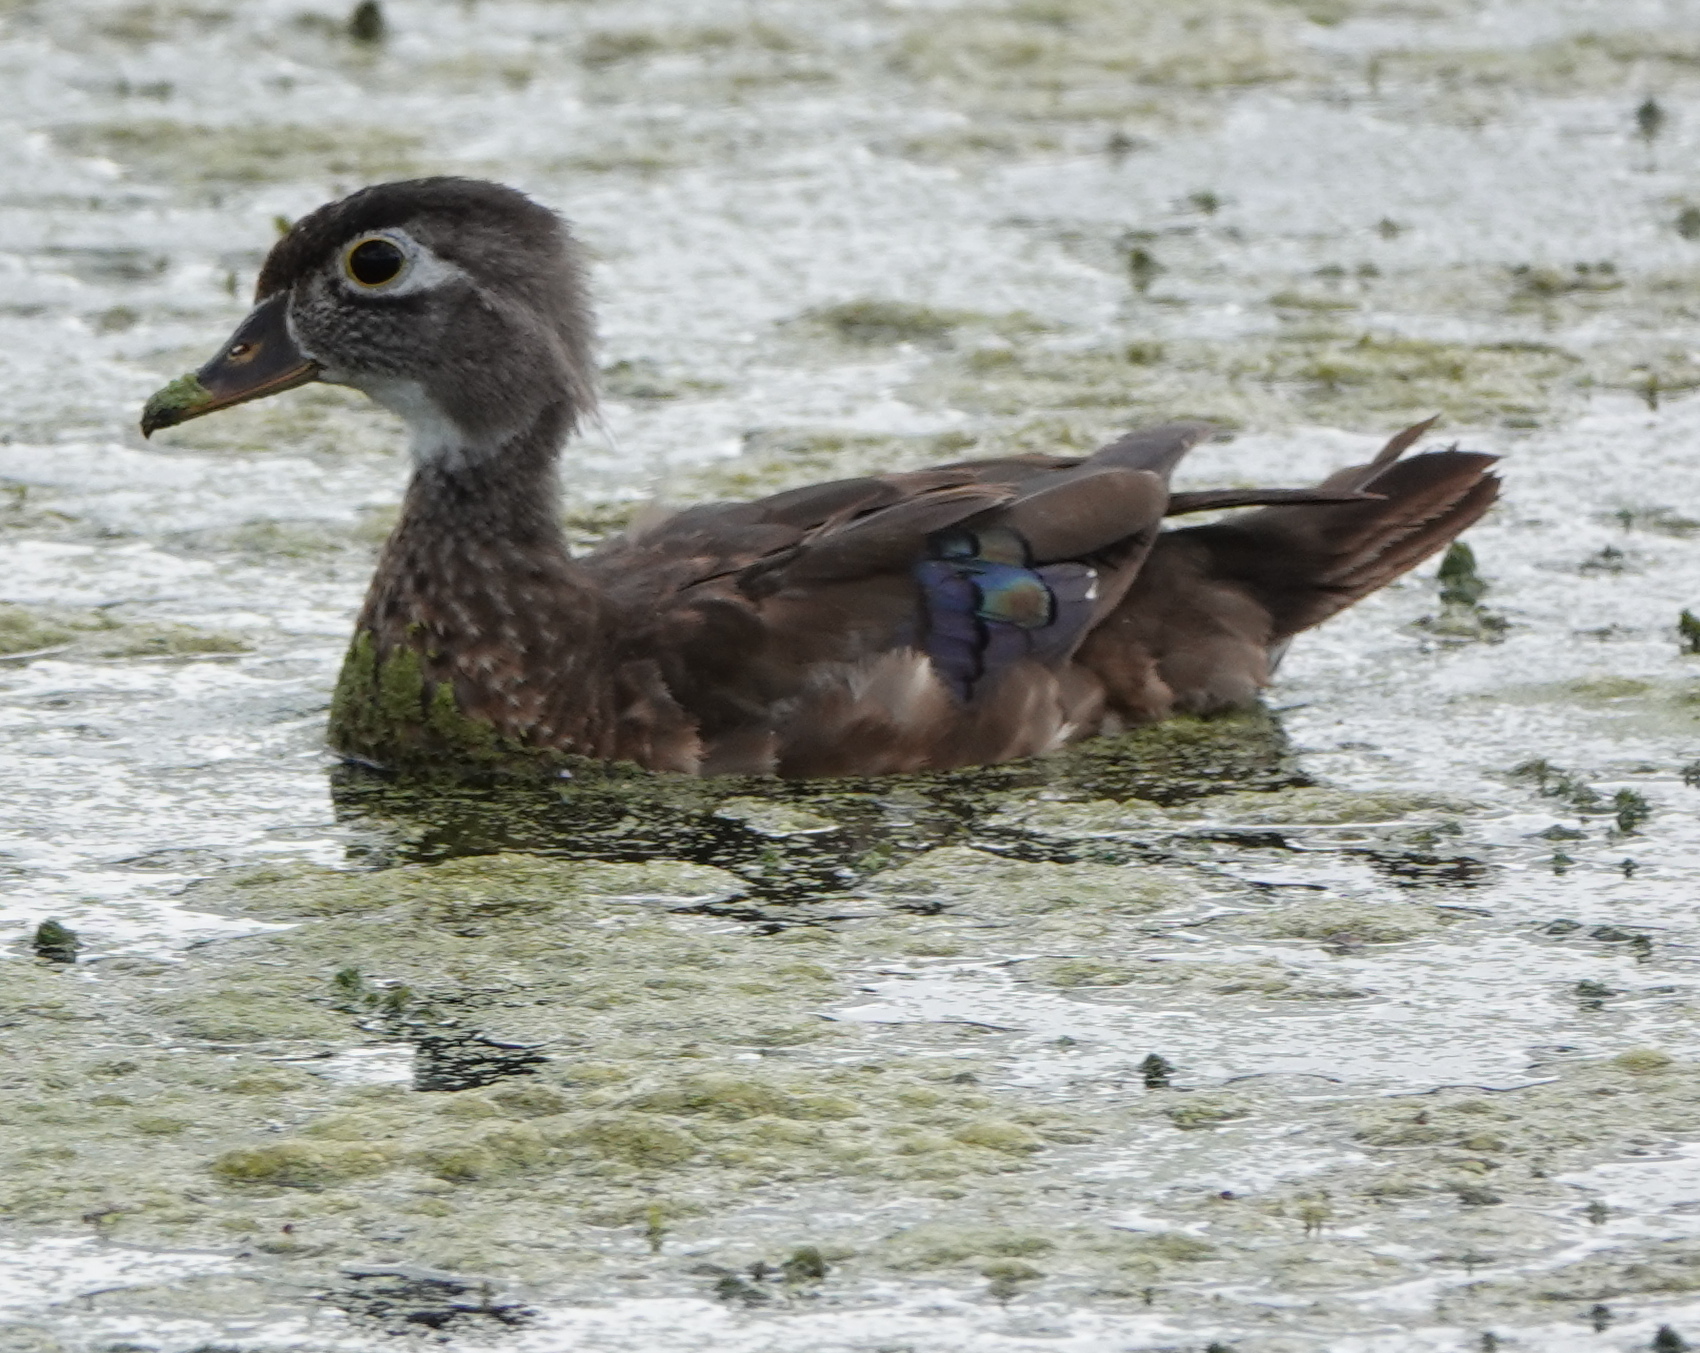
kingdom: Animalia
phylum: Chordata
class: Aves
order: Anseriformes
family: Anatidae
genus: Aix
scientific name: Aix sponsa
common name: Wood duck
